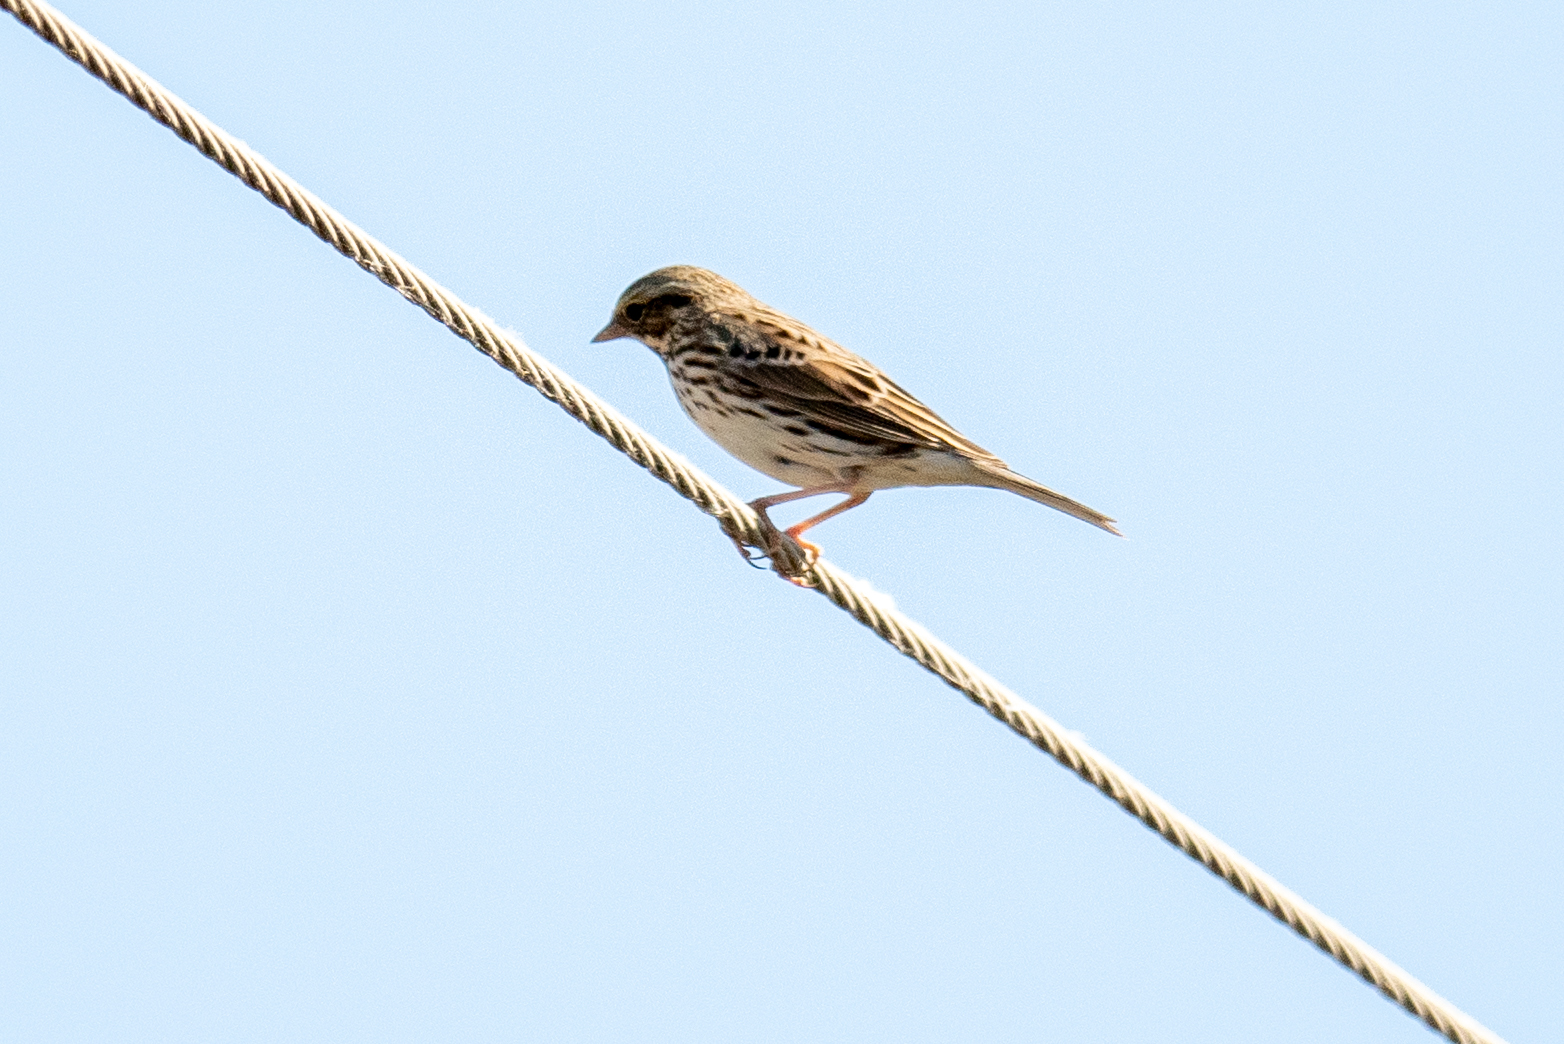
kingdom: Animalia
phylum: Chordata
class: Aves
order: Passeriformes
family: Passerellidae
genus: Passerculus
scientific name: Passerculus sandwichensis
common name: Savannah sparrow
